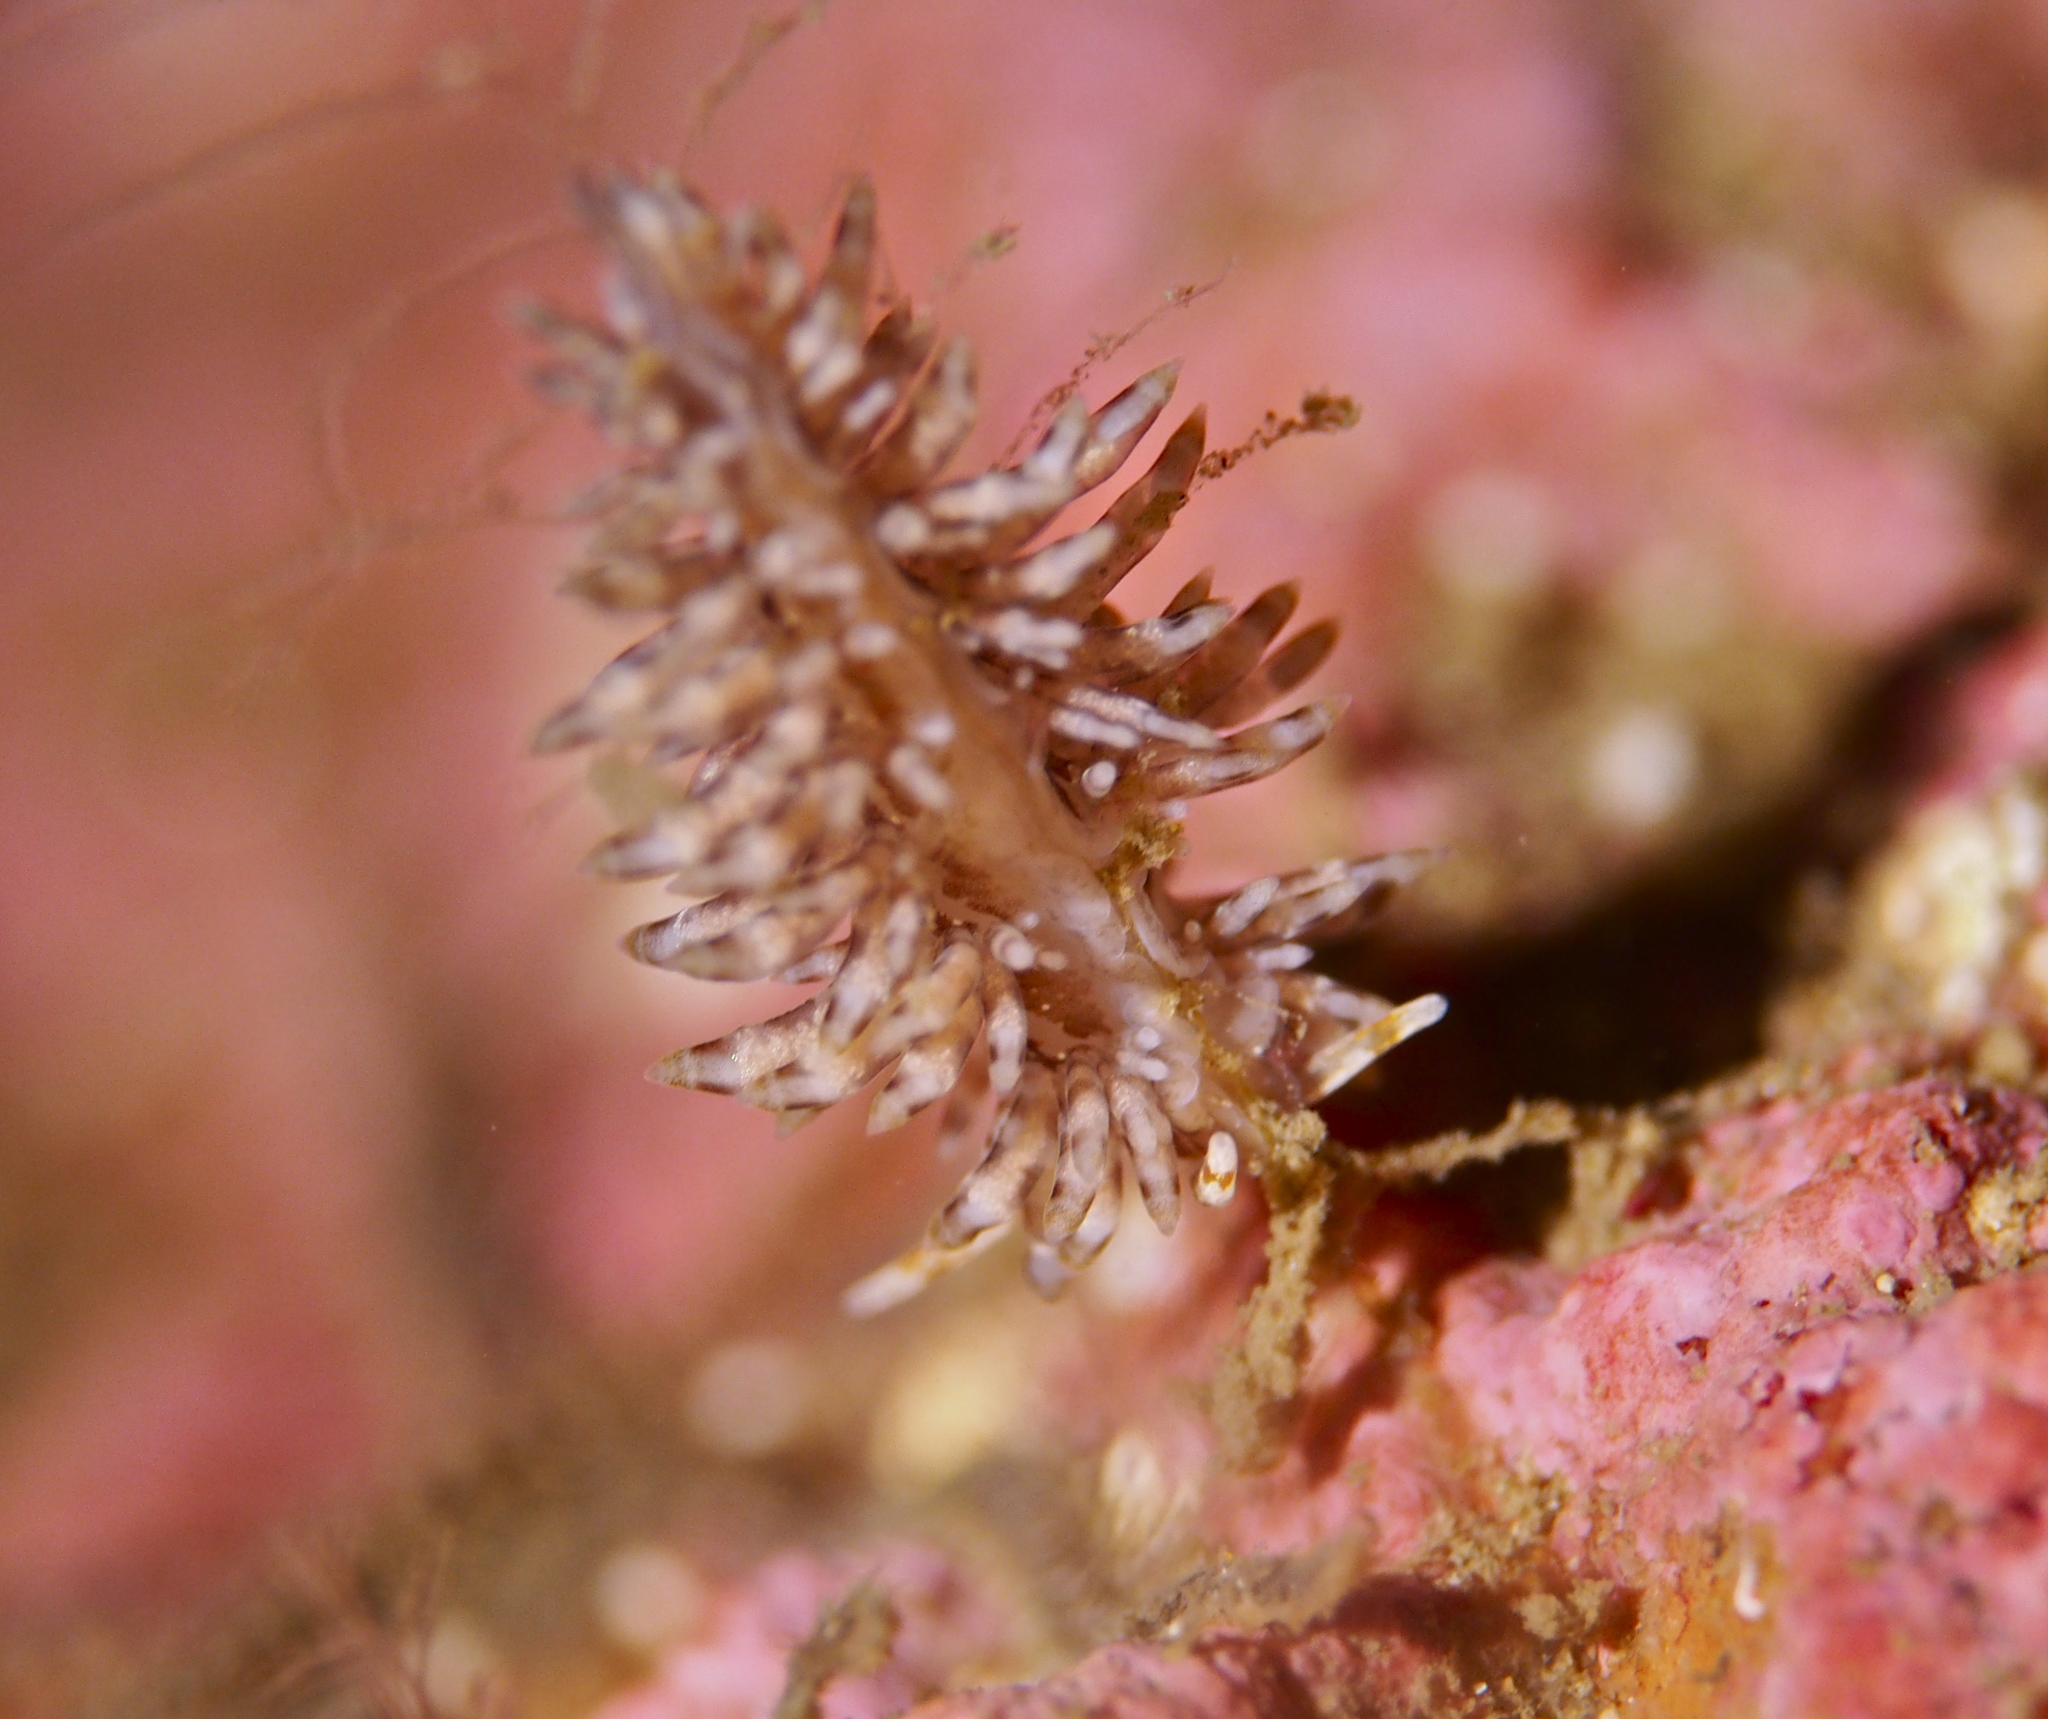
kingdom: Animalia
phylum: Mollusca
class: Gastropoda
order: Nudibranchia
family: Eubranchidae
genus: Eubranchus
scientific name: Eubranchus vittatus
